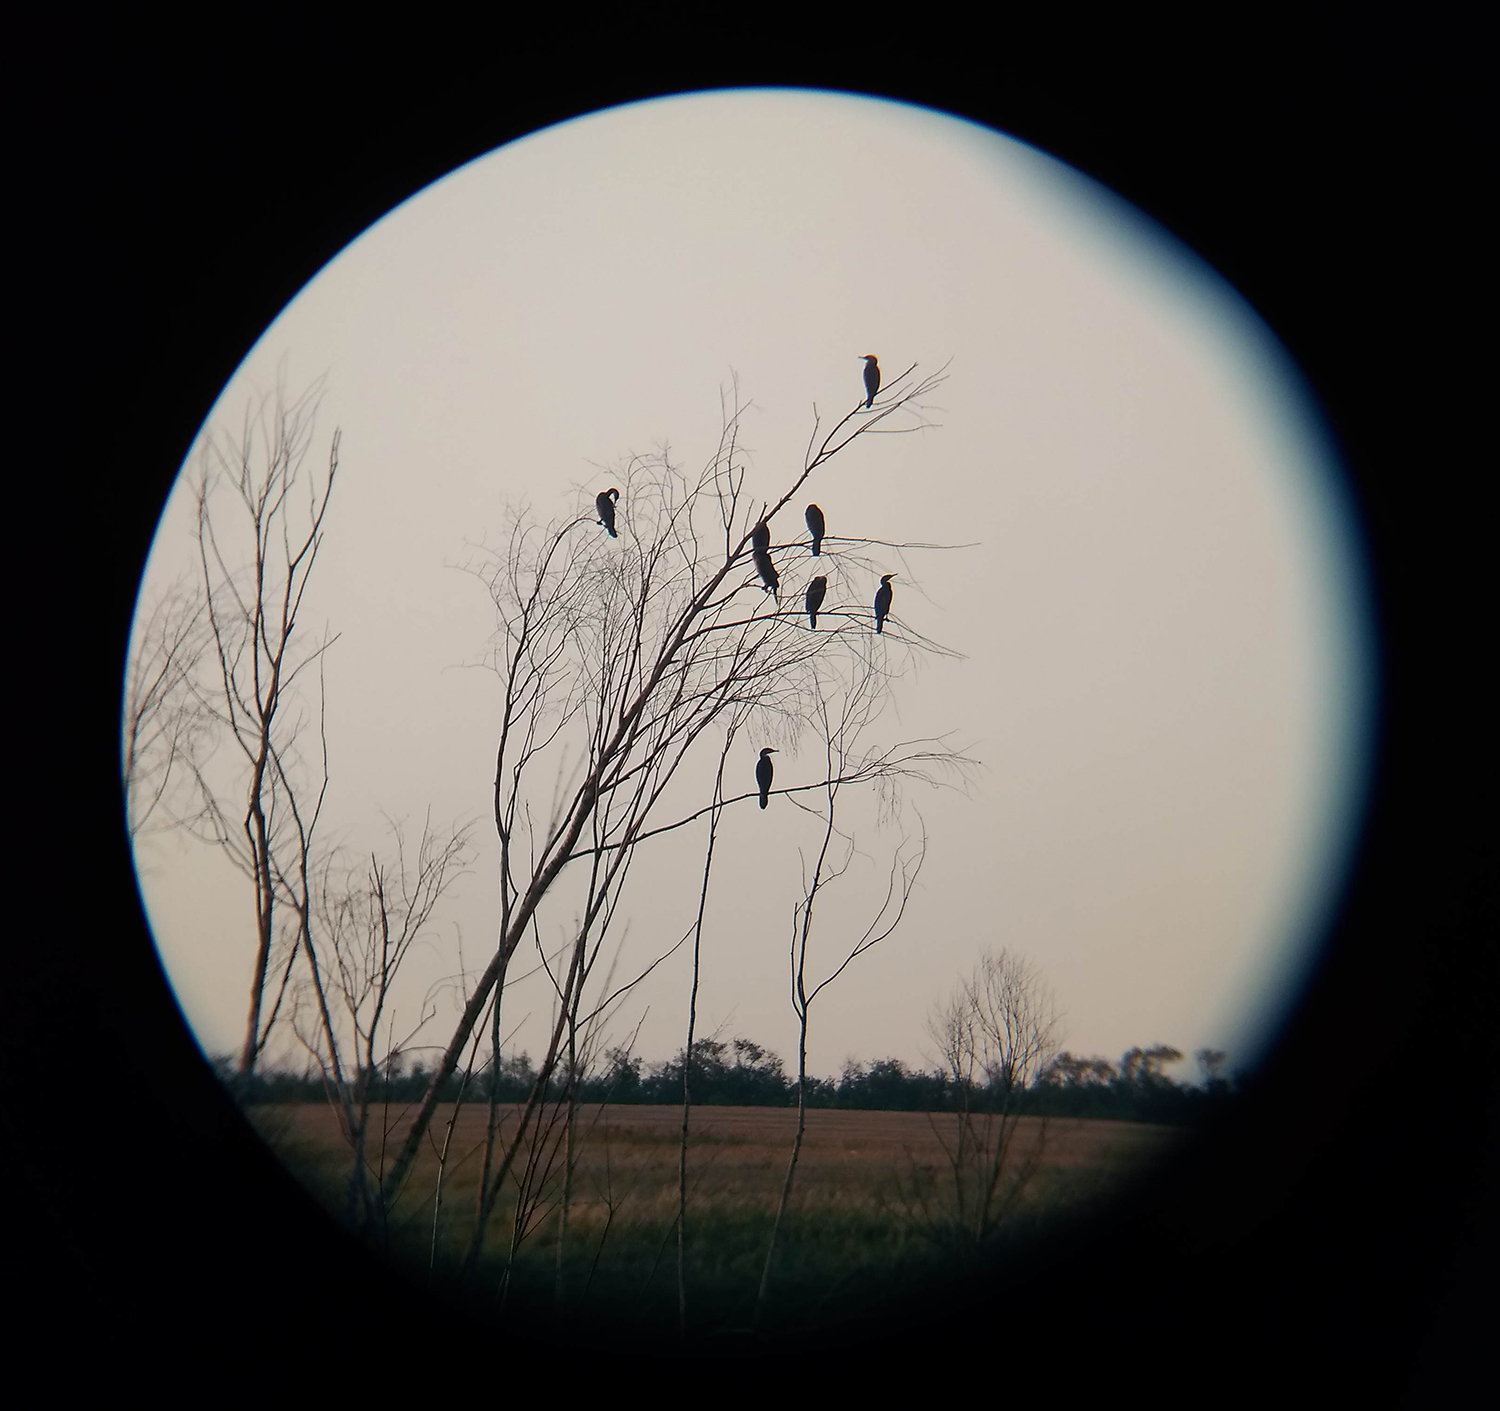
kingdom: Animalia
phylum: Chordata
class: Aves
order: Suliformes
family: Phalacrocoracidae
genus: Phalacrocorax
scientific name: Phalacrocorax carbo
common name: Great cormorant
